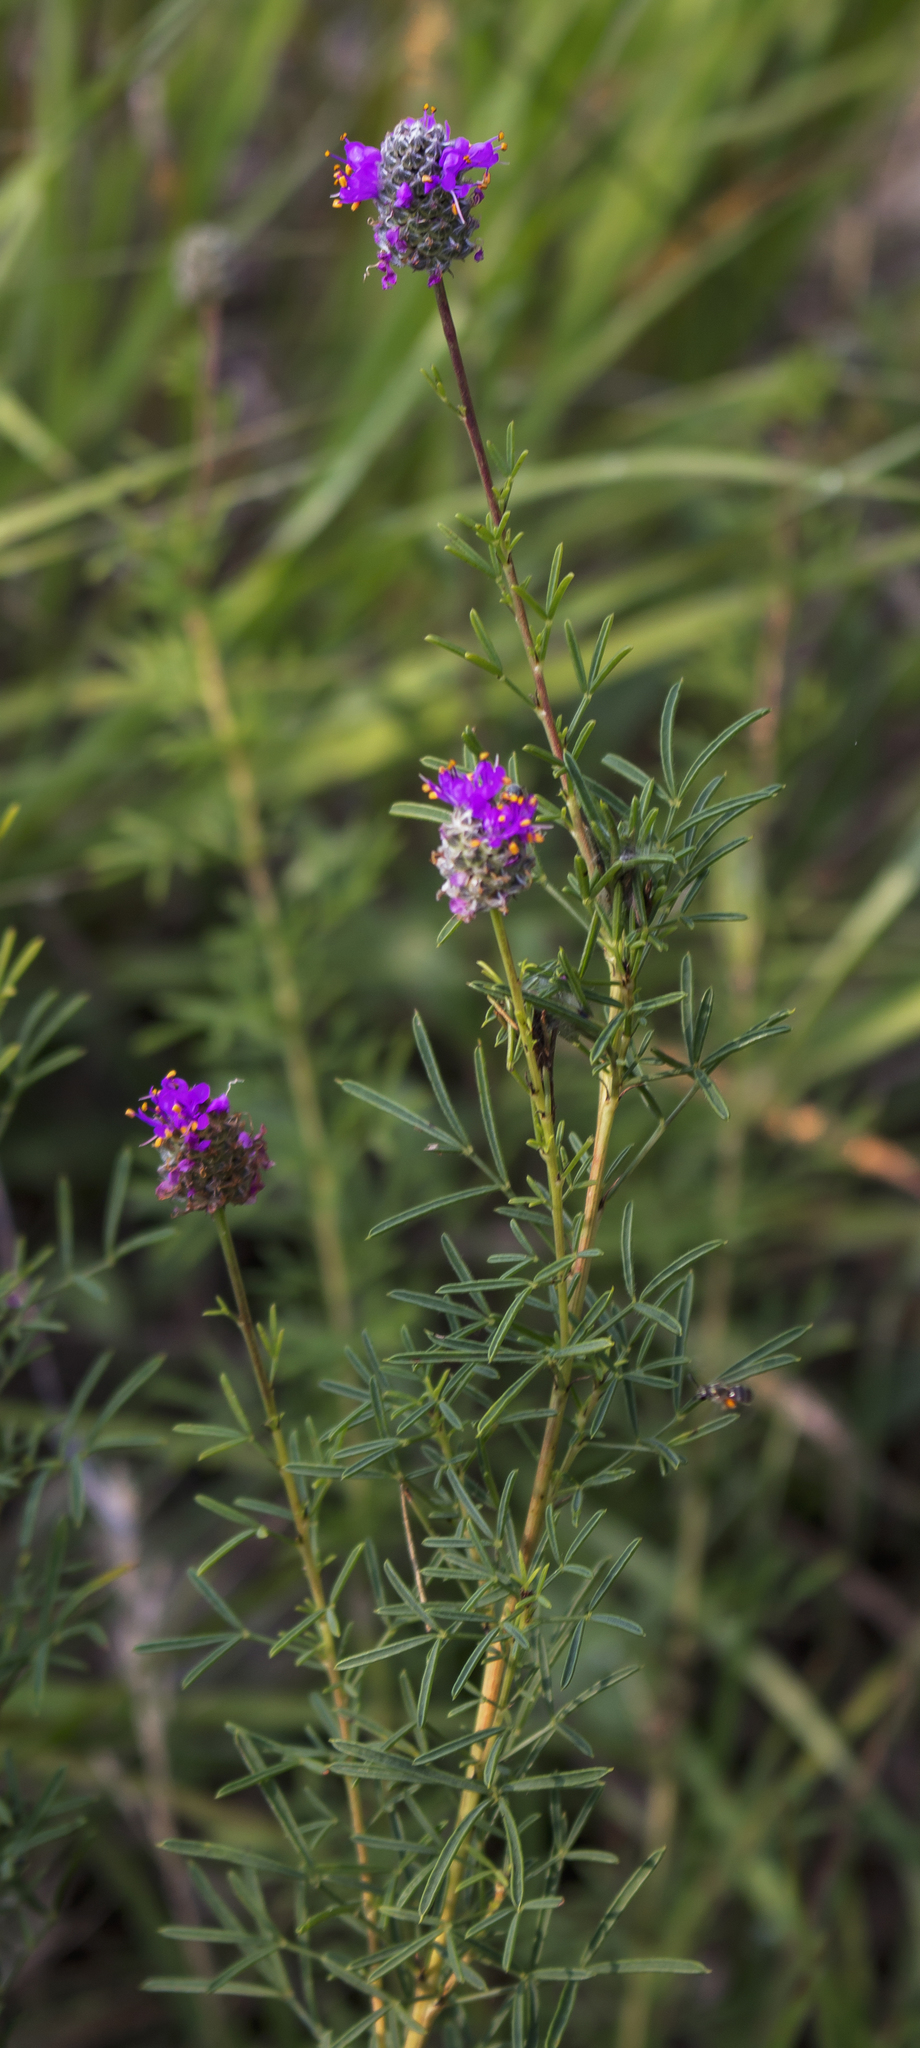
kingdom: Plantae
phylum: Tracheophyta
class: Magnoliopsida
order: Fabales
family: Fabaceae
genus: Dalea
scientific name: Dalea purpurea
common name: Purple prairie-clover
